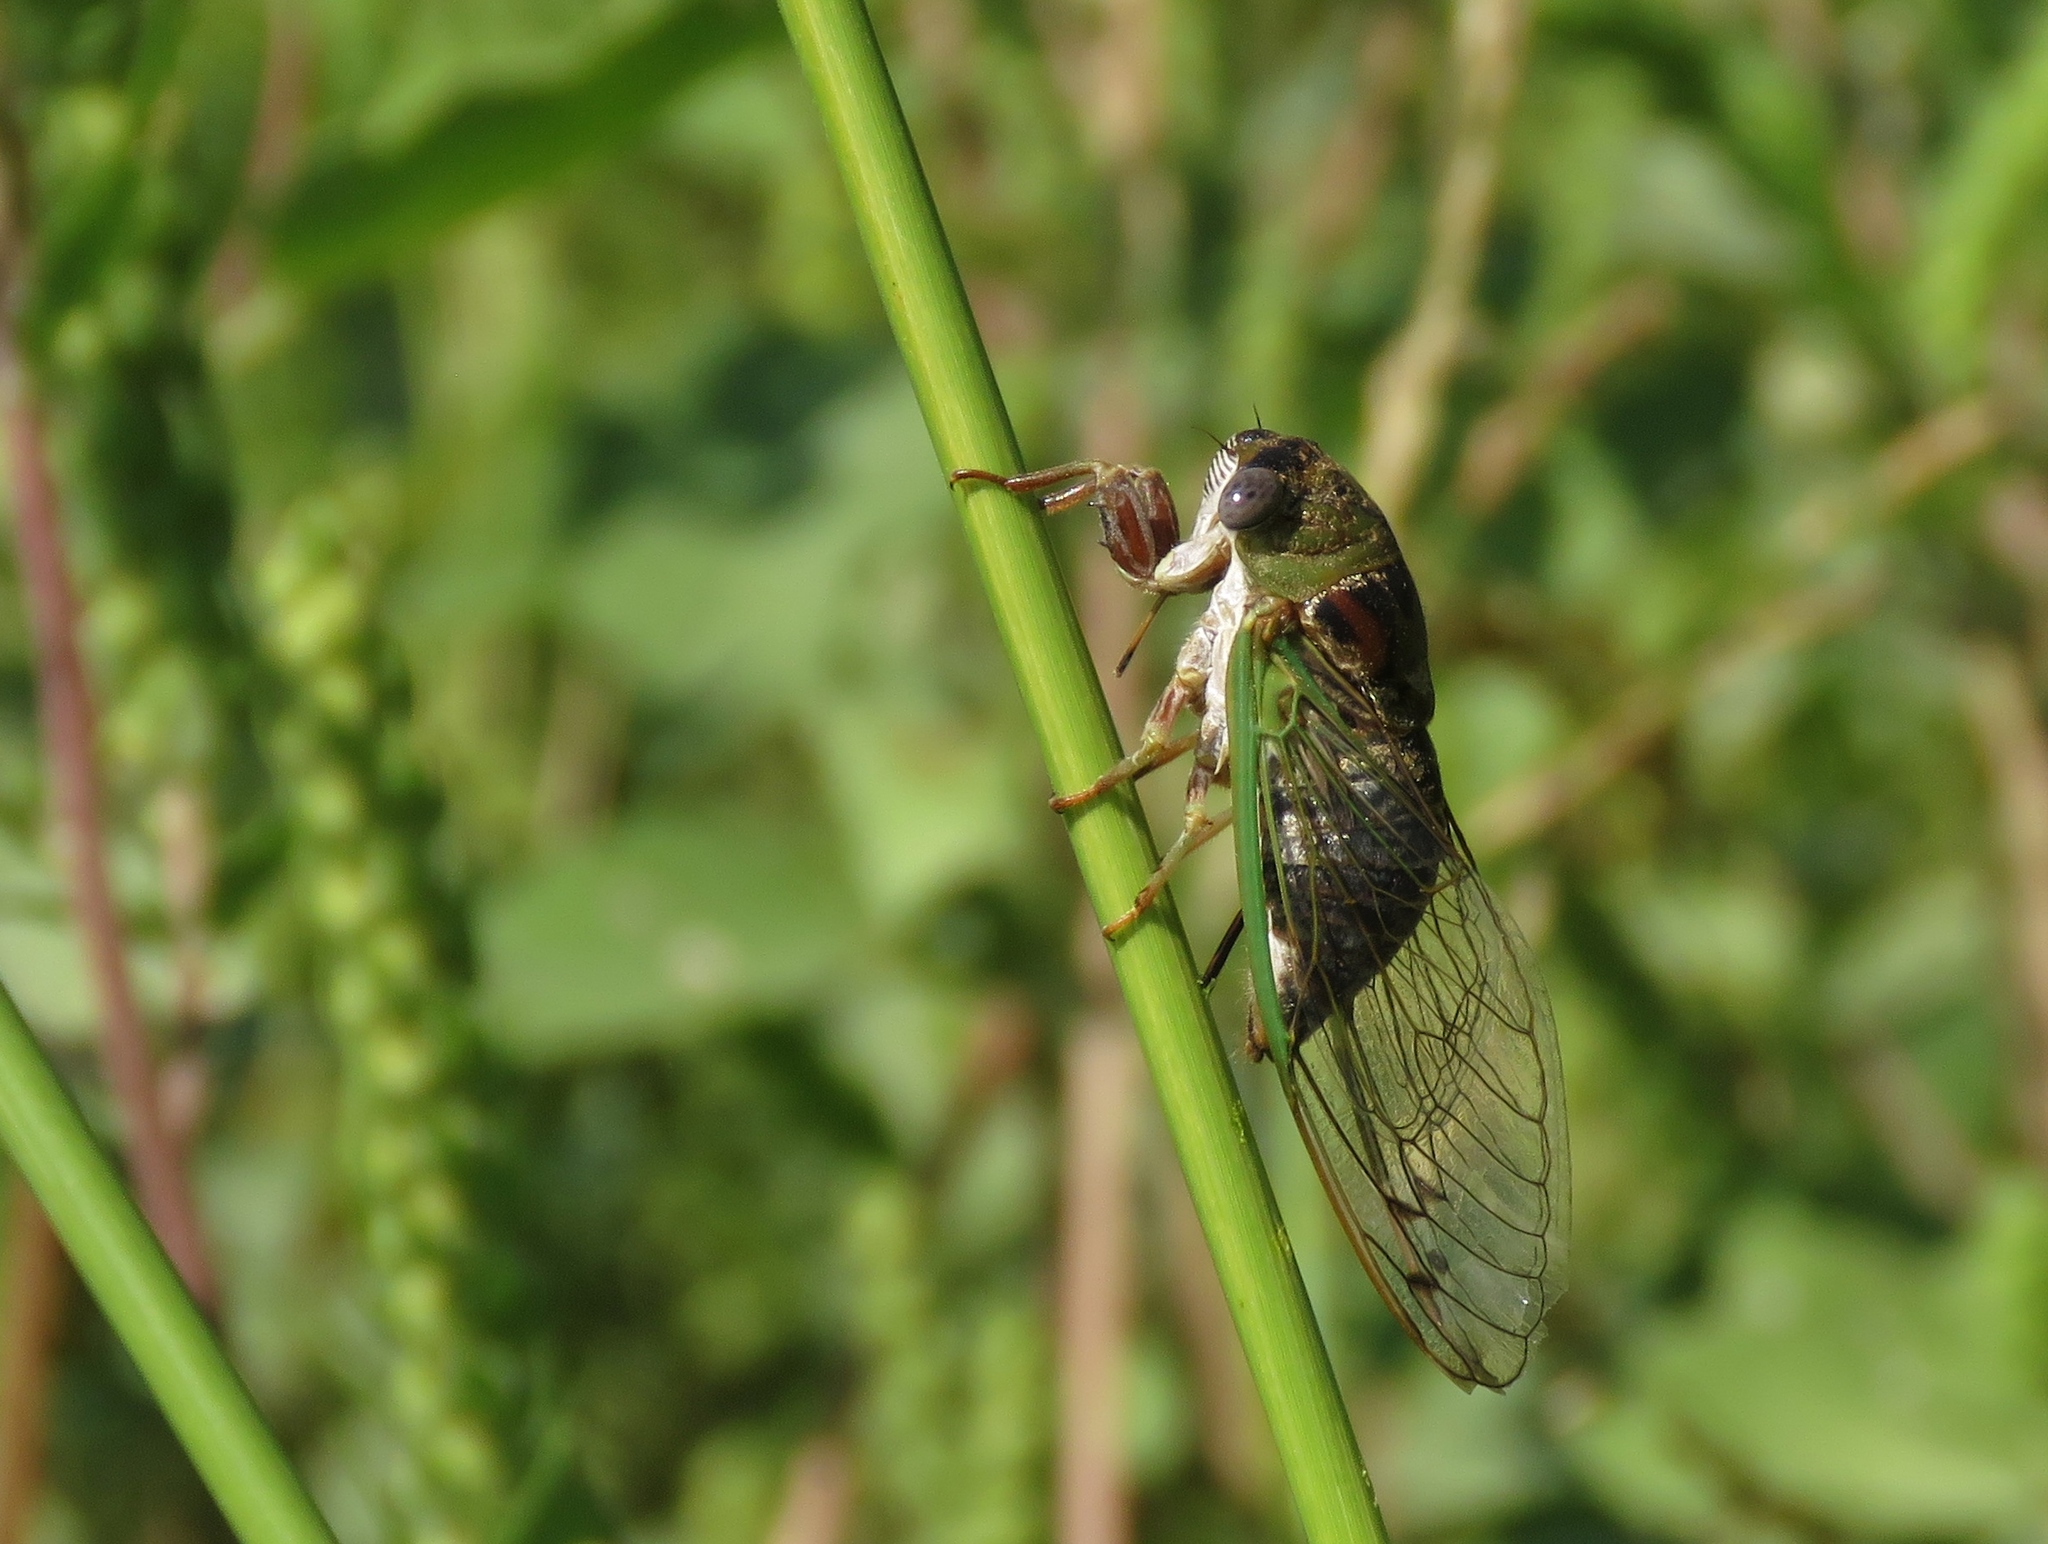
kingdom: Animalia
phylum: Arthropoda
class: Insecta
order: Hemiptera
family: Cicadidae
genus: Neotibicen
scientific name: Neotibicen aurifer
